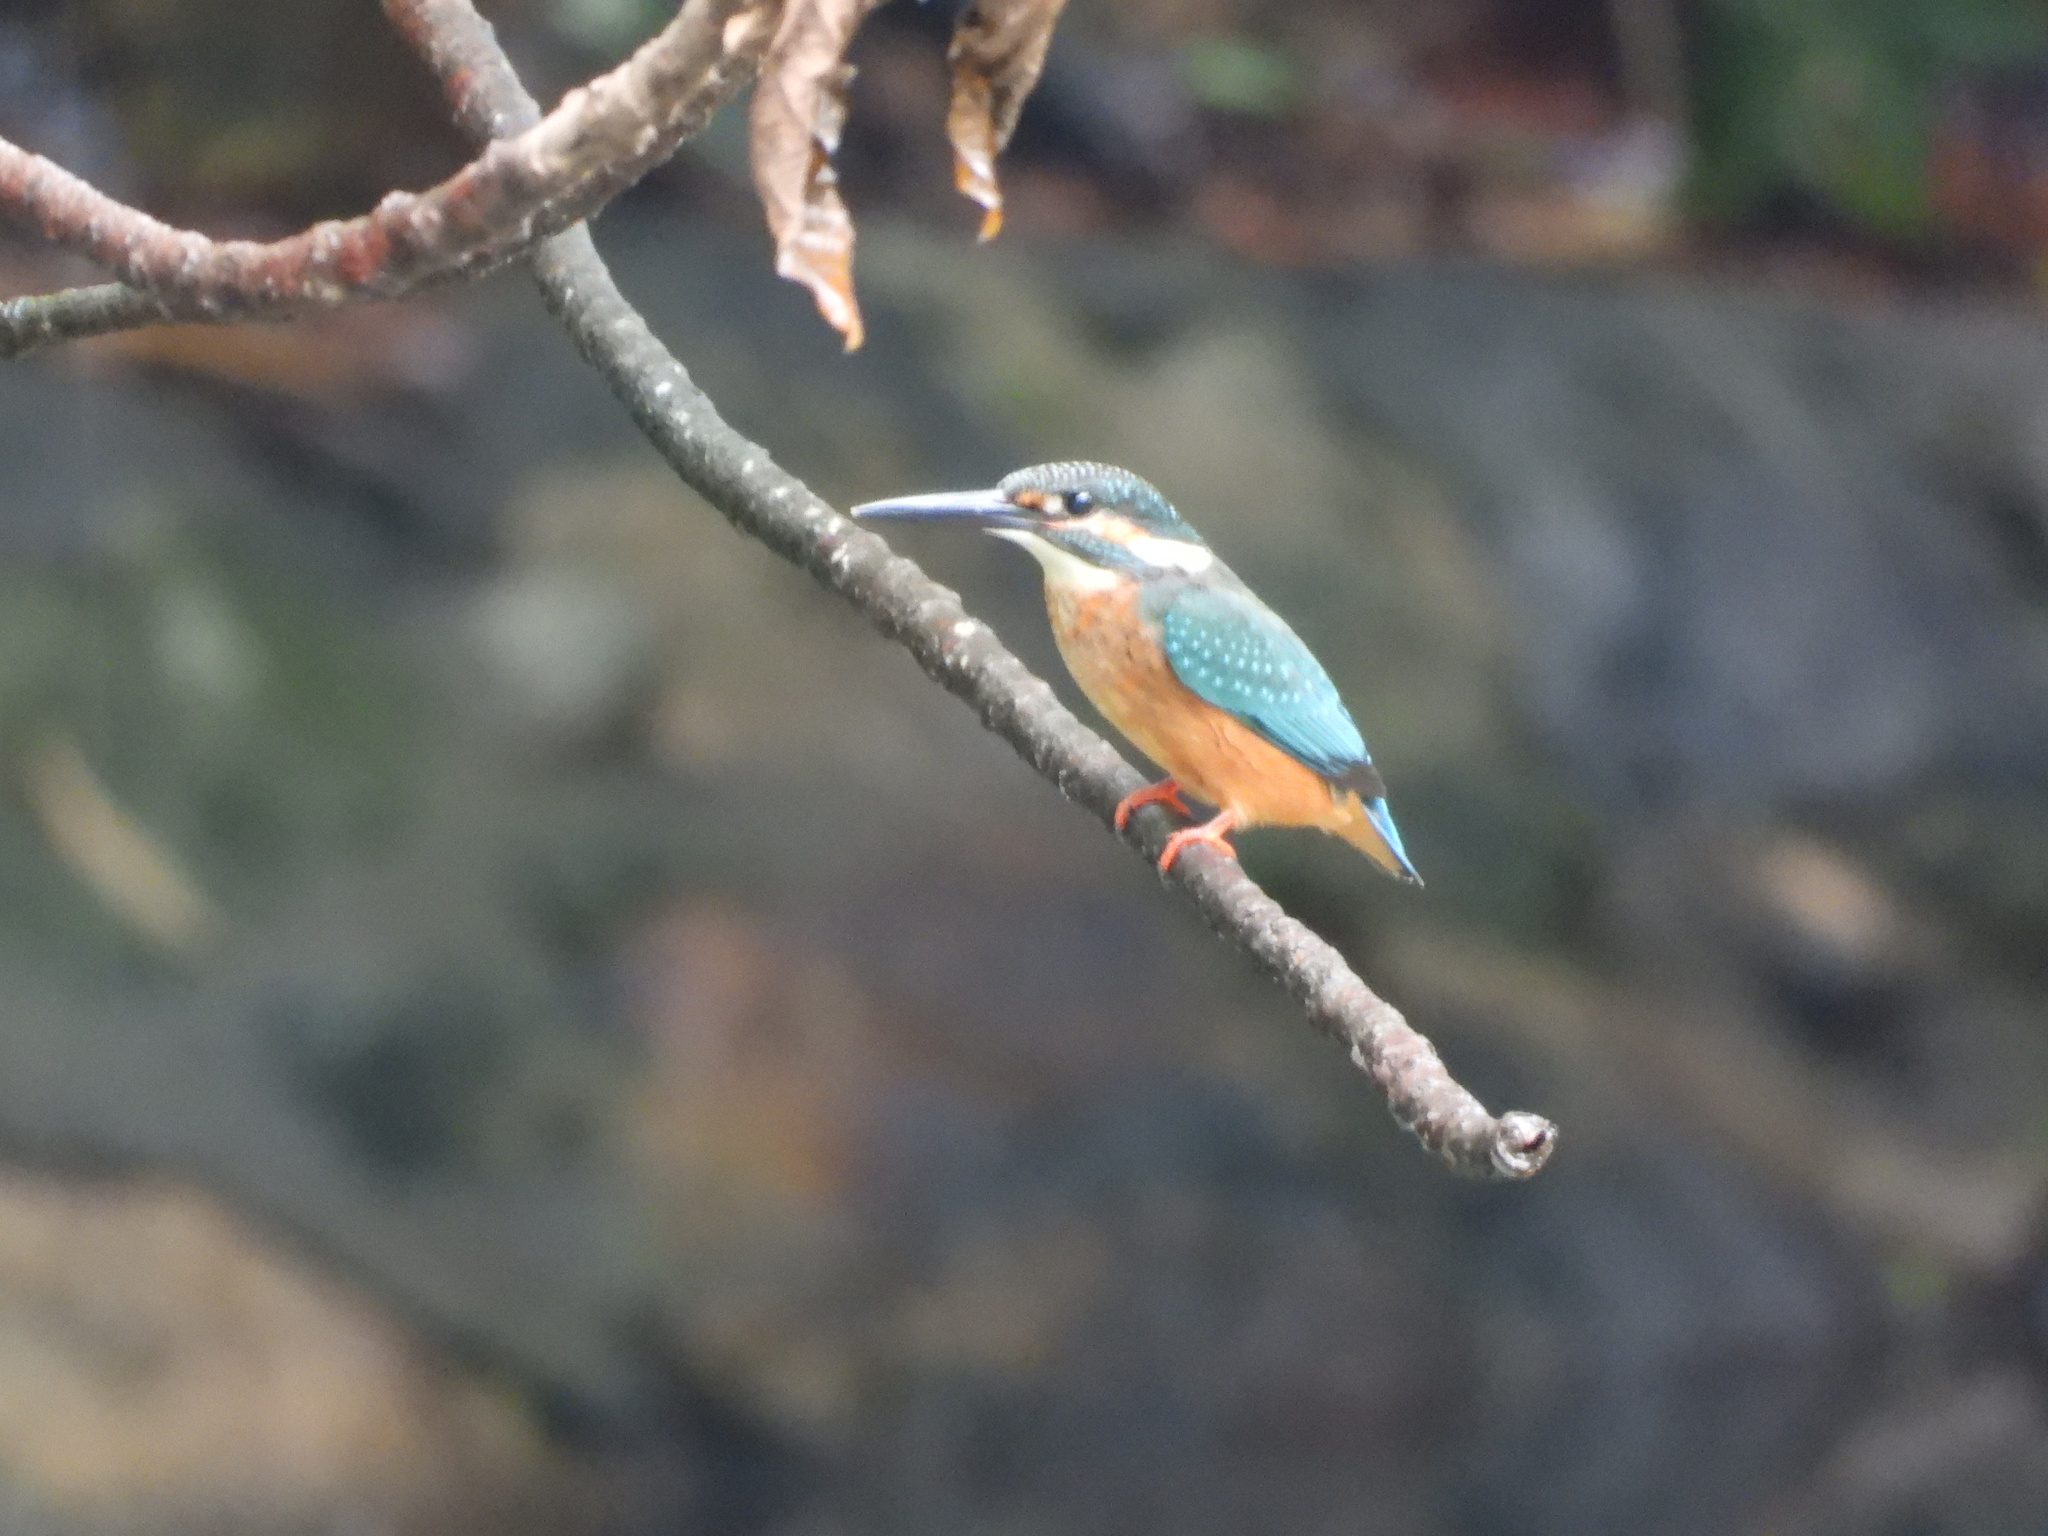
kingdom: Animalia
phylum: Chordata
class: Aves
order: Coraciiformes
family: Alcedinidae
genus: Alcedo
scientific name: Alcedo atthis
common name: Common kingfisher
